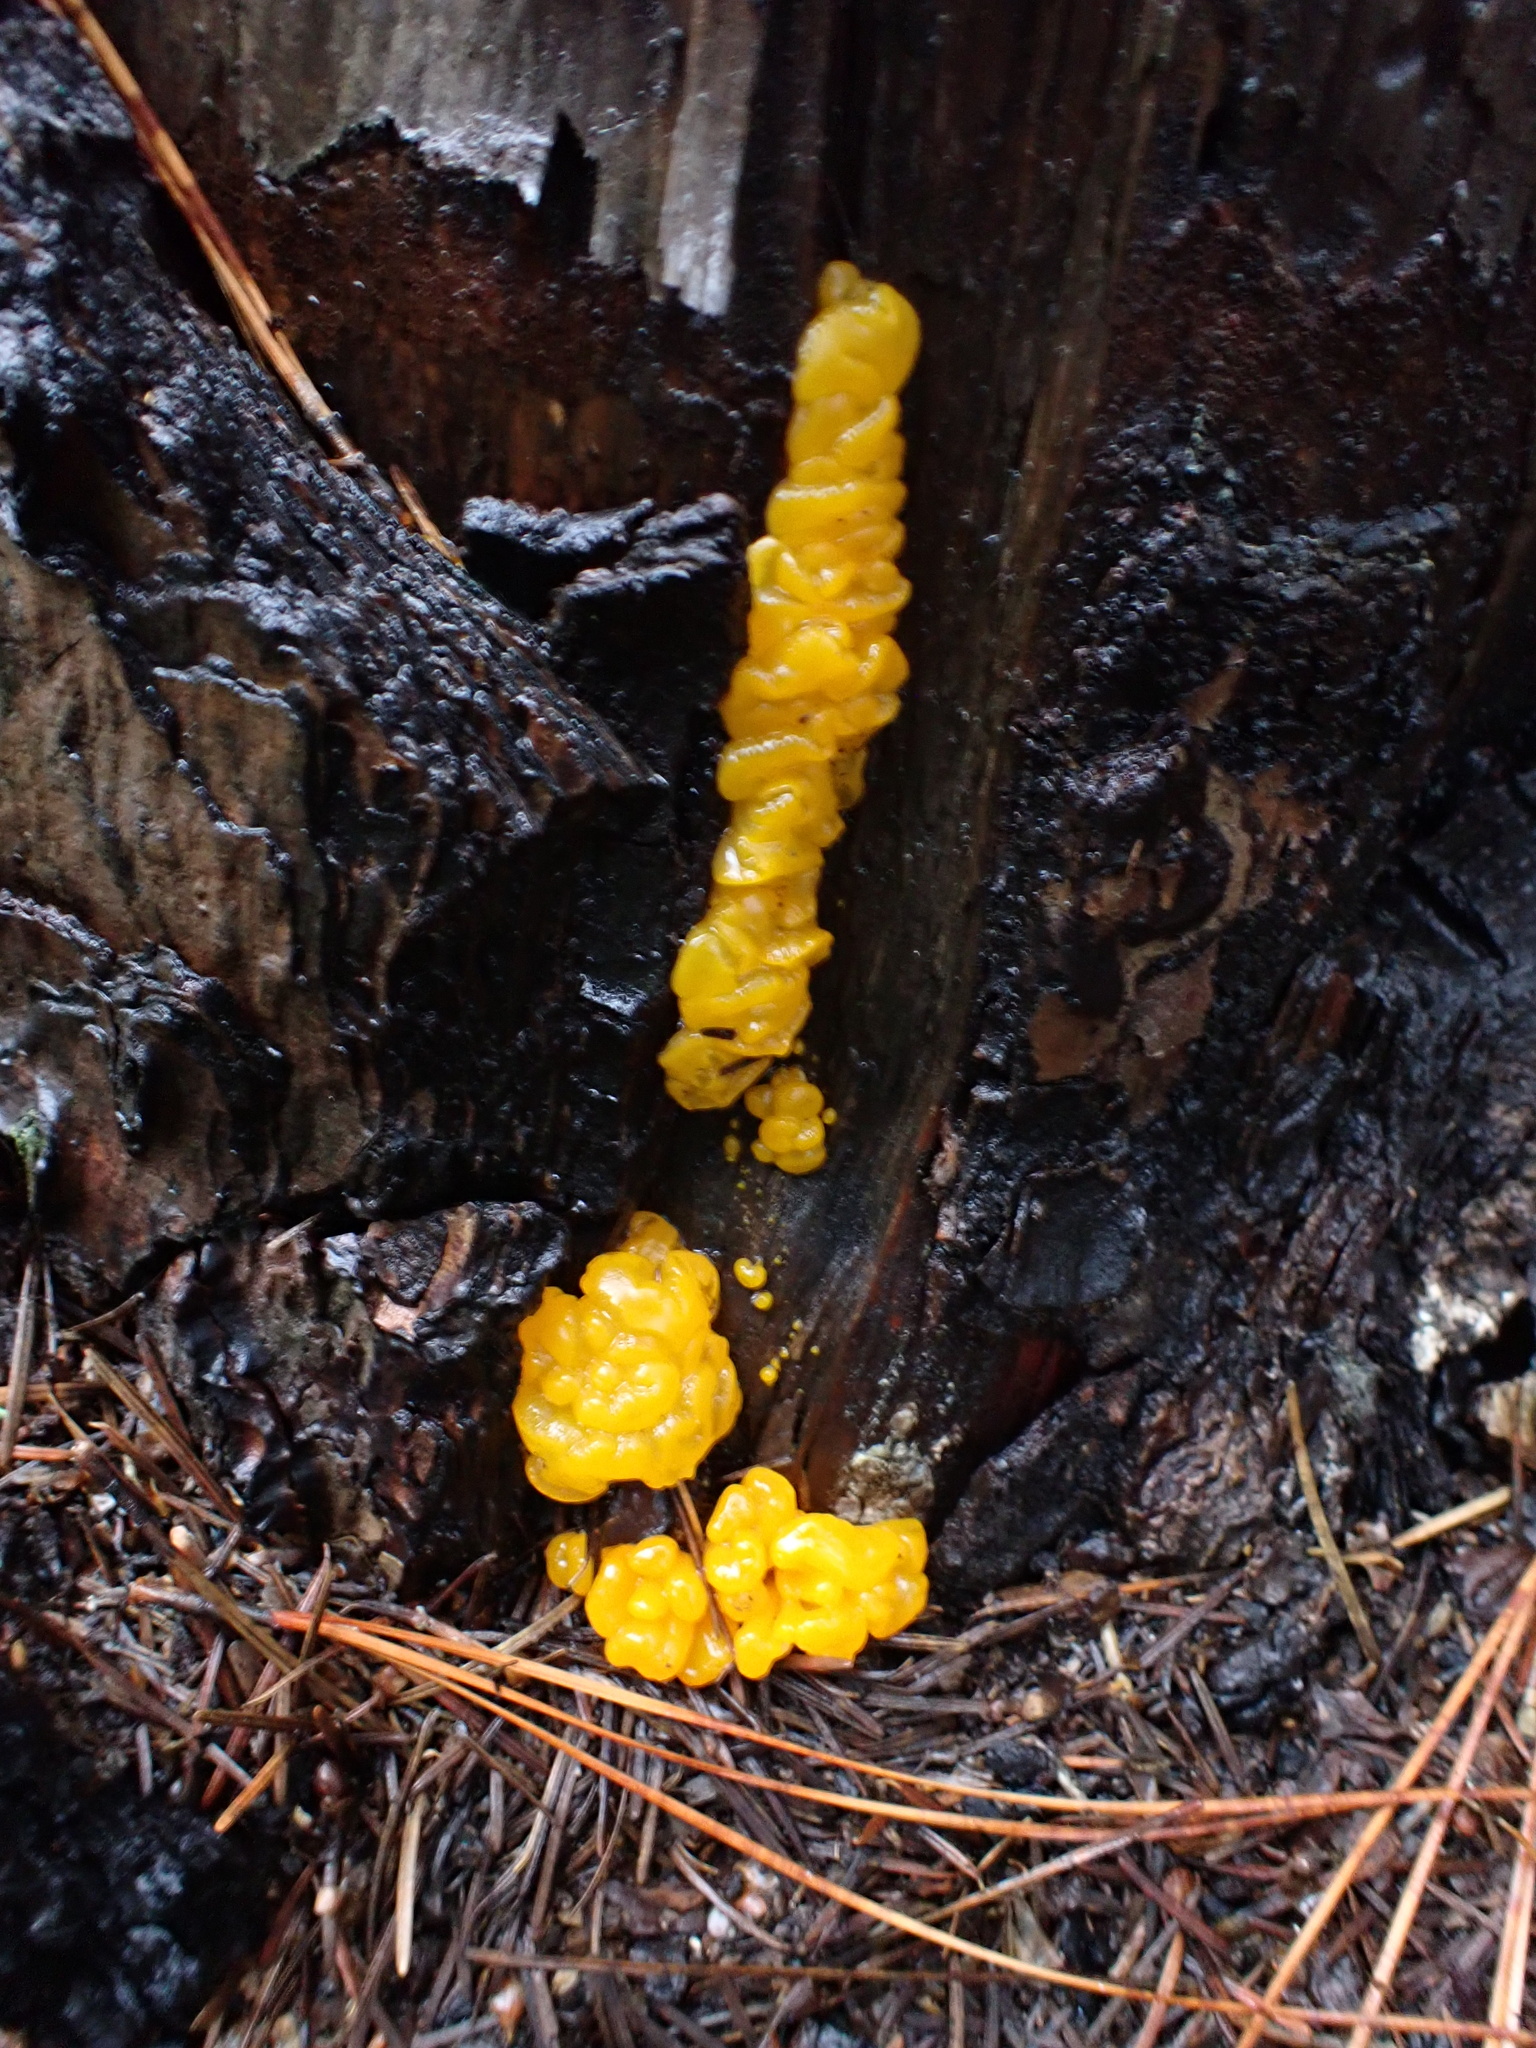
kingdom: Fungi
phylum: Basidiomycota
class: Dacrymycetes
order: Dacrymycetales
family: Dacrymycetaceae
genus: Dacrymyces
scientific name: Dacrymyces dictyosporus
